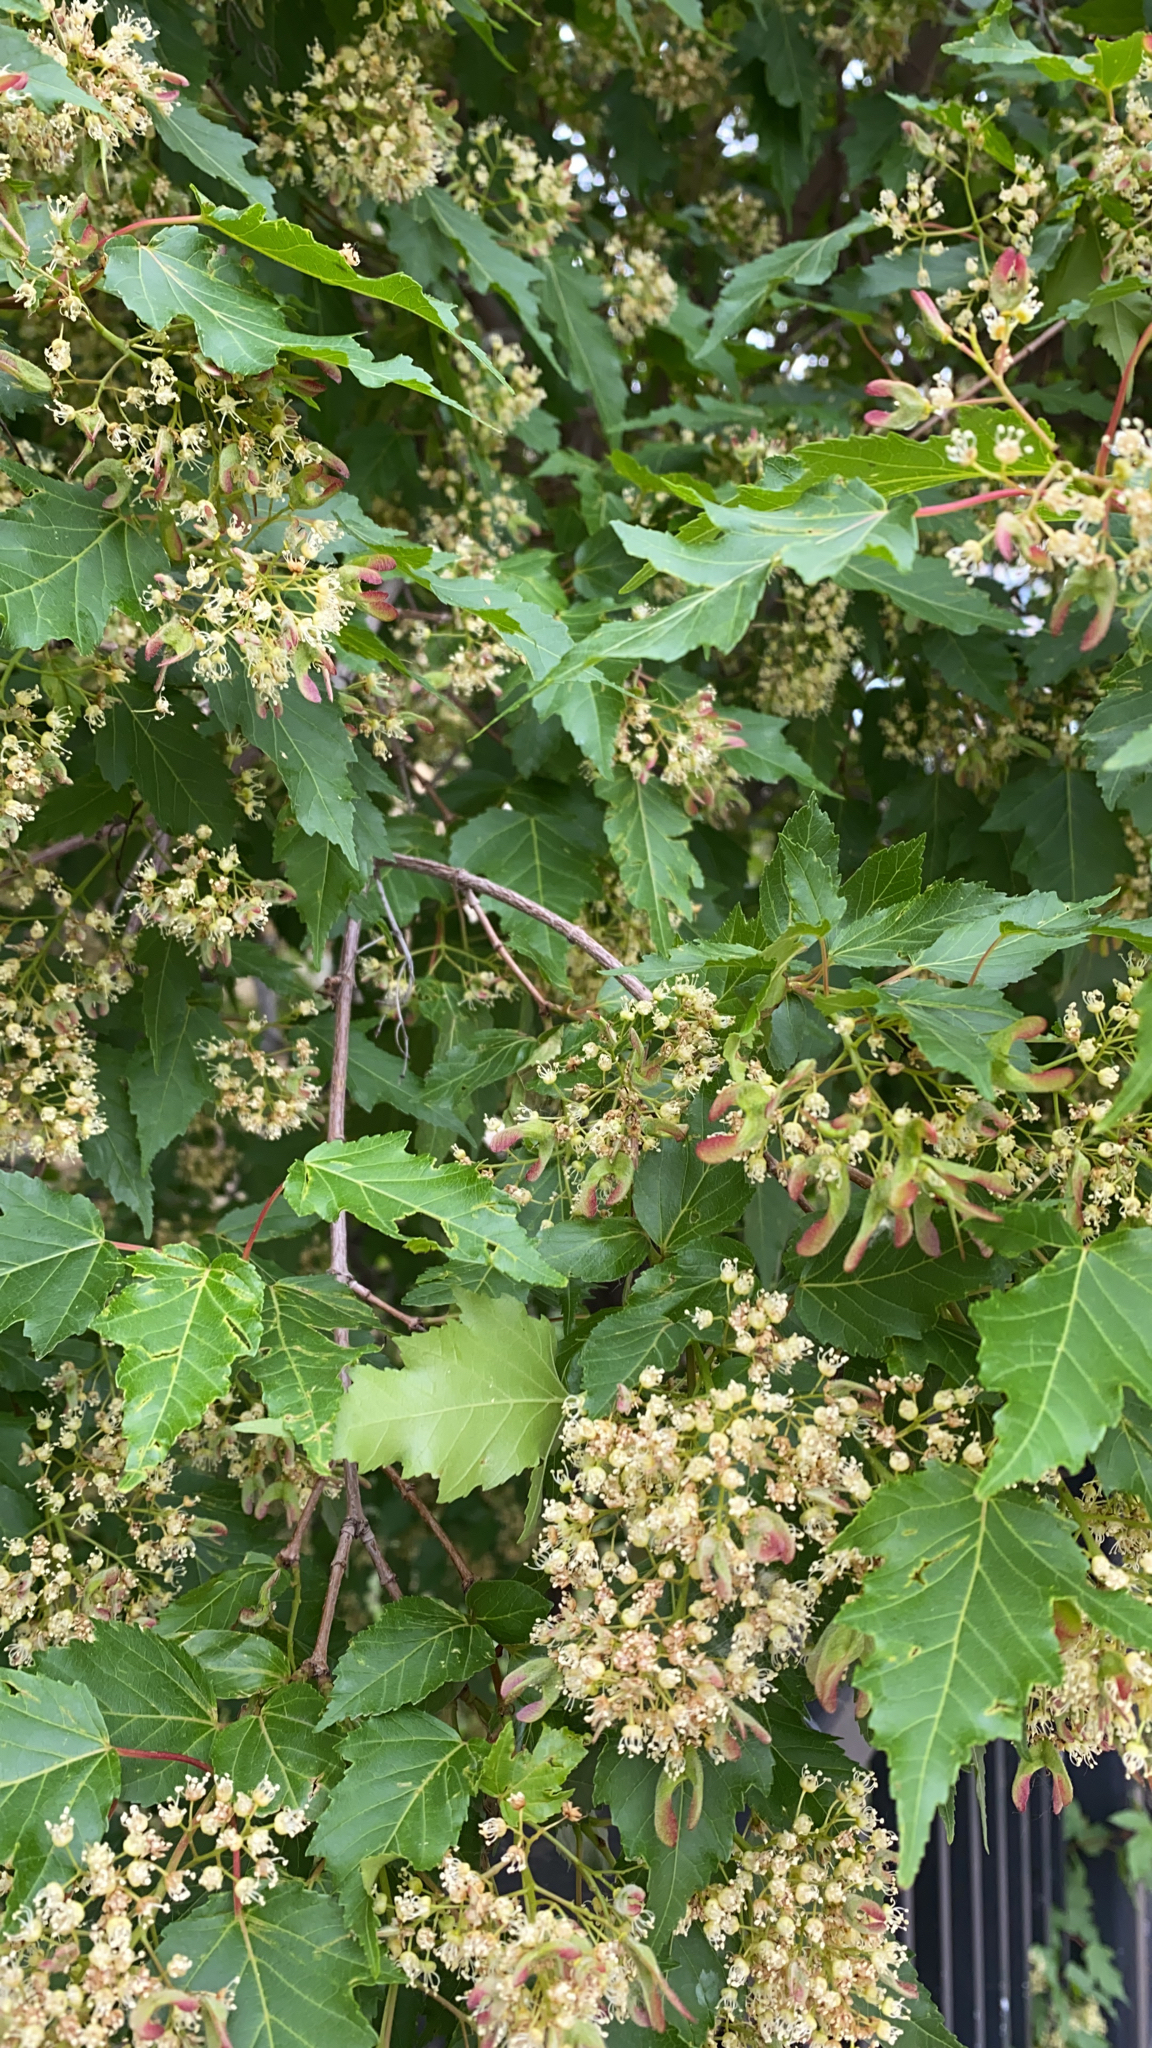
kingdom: Plantae
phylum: Tracheophyta
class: Magnoliopsida
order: Sapindales
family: Sapindaceae
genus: Acer
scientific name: Acer tataricum
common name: Tartar maple
